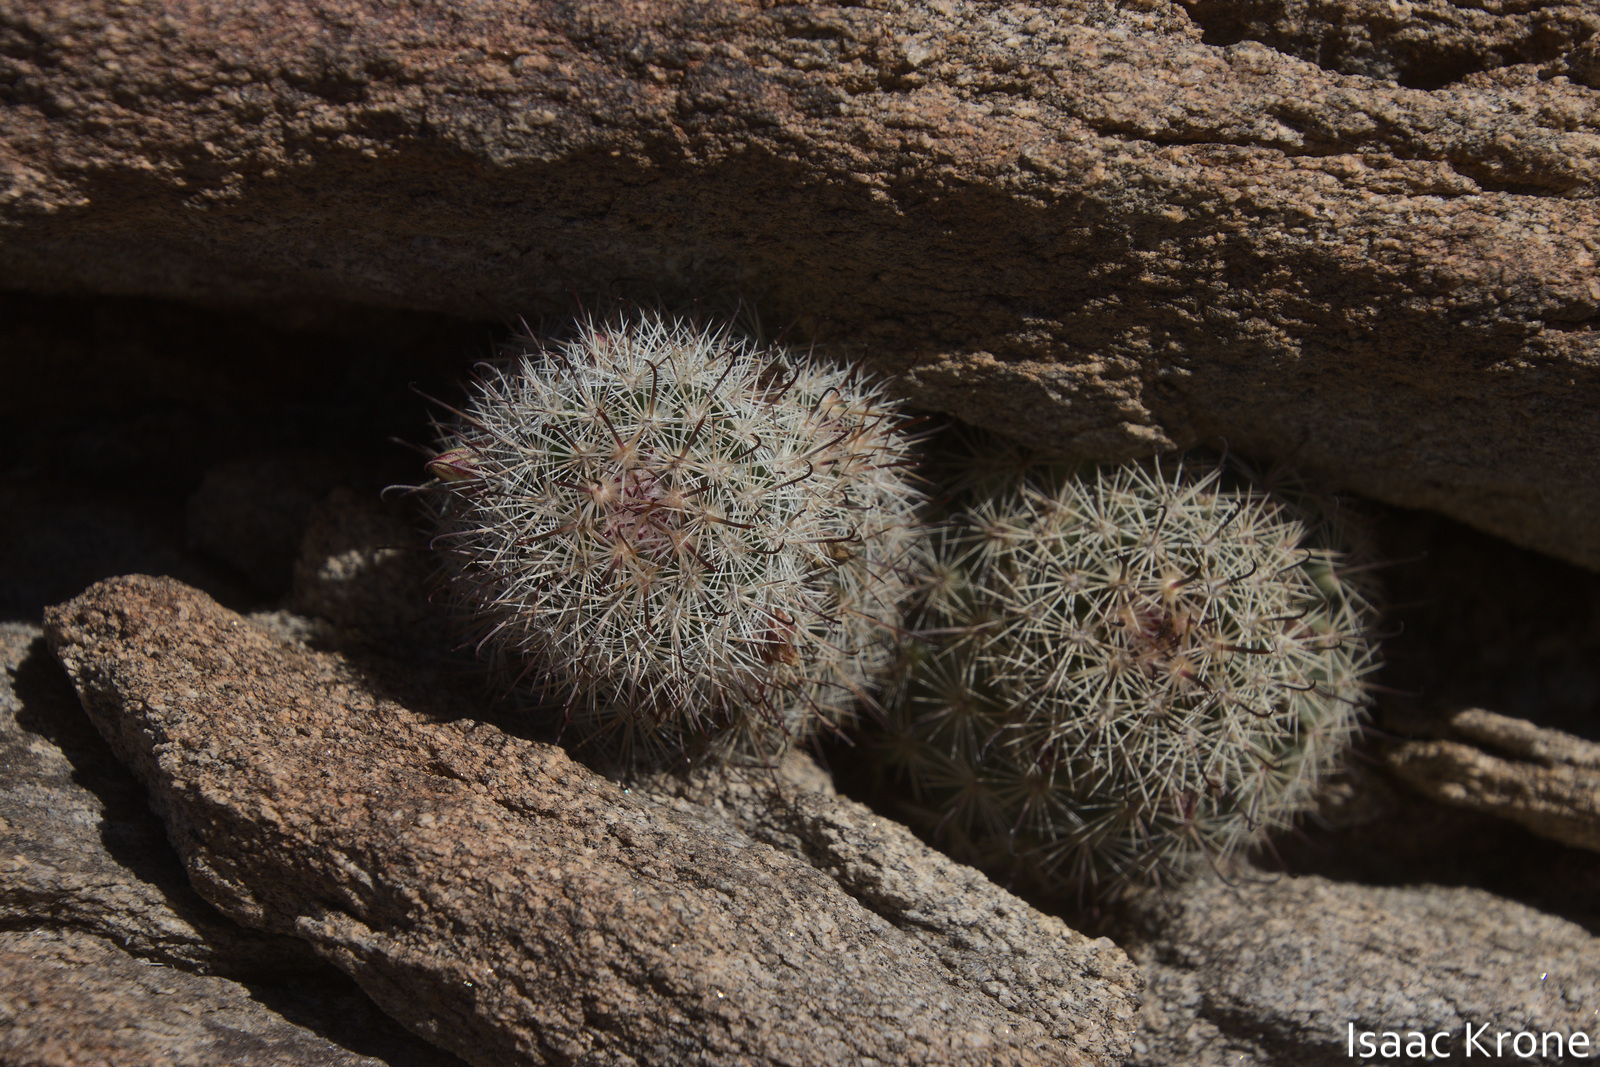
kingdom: Plantae
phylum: Tracheophyta
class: Magnoliopsida
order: Caryophyllales
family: Cactaceae
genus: Cochemiea
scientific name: Cochemiea dioica
